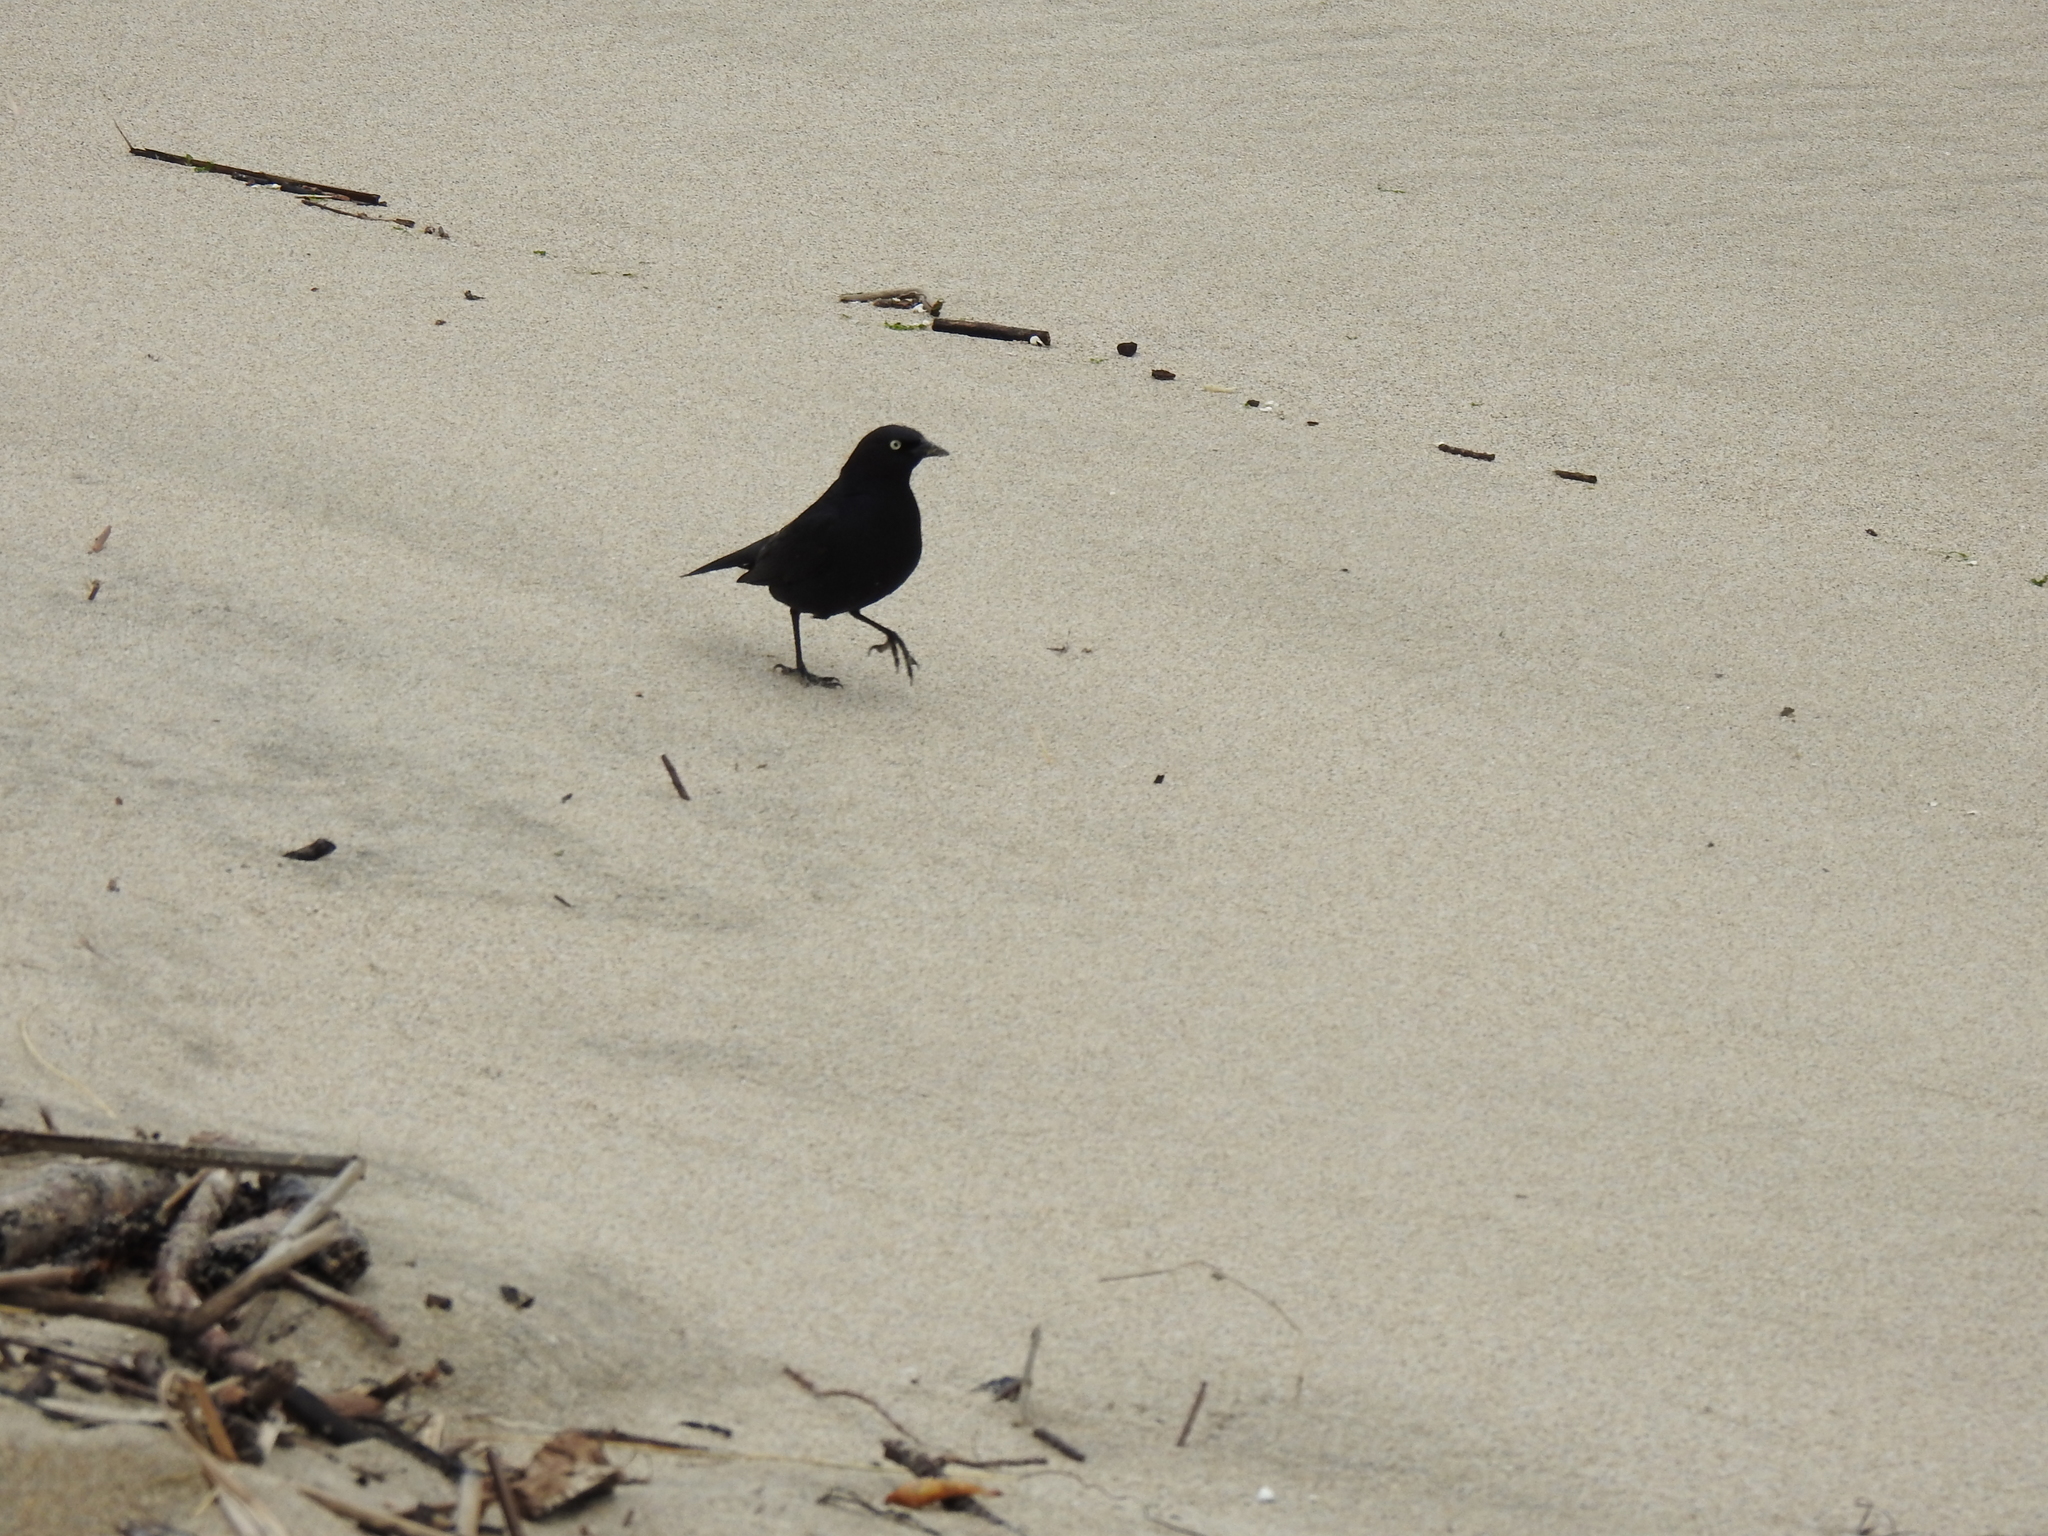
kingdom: Animalia
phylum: Chordata
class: Aves
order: Passeriformes
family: Icteridae
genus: Euphagus
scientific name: Euphagus cyanocephalus
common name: Brewer's blackbird
